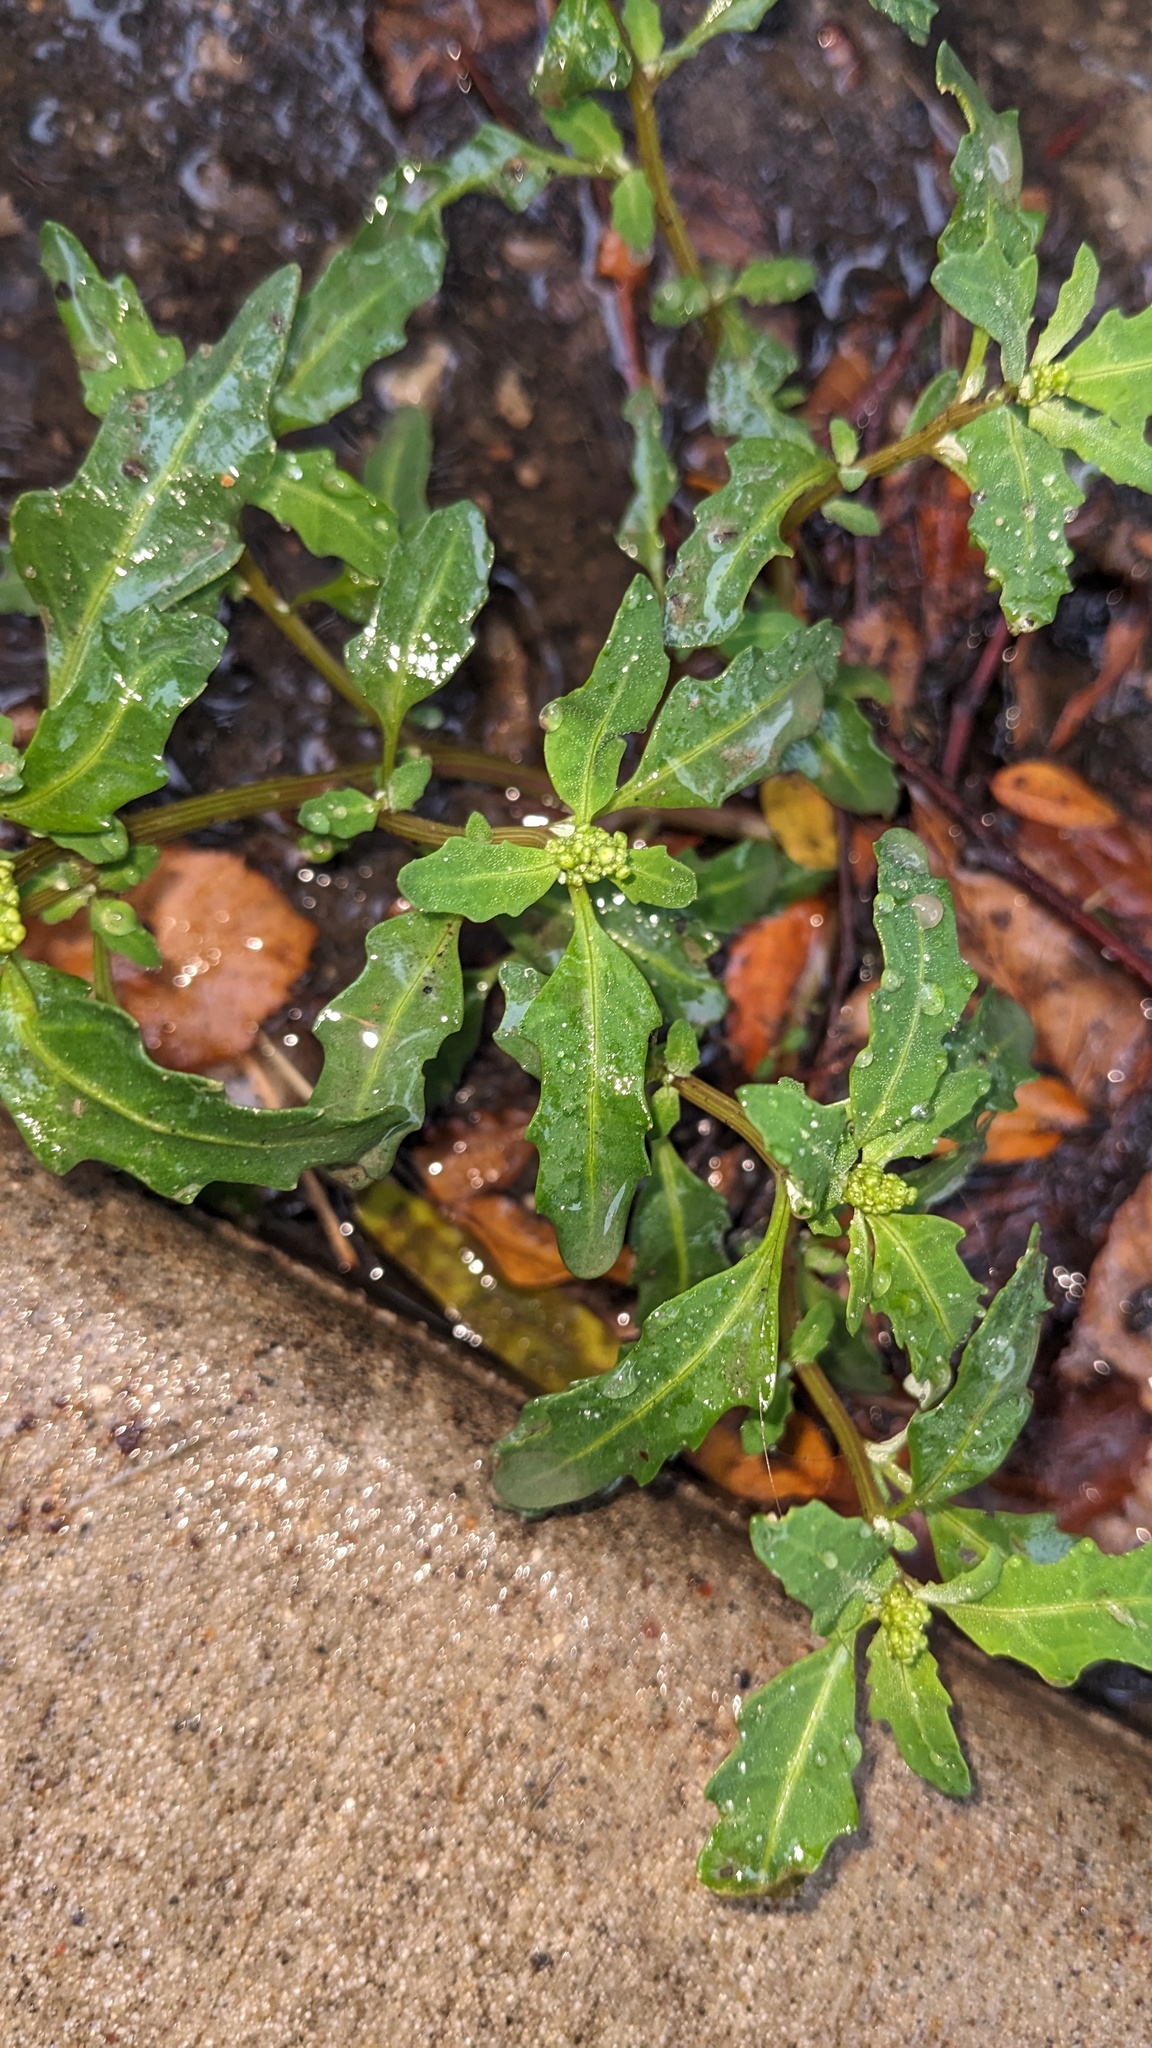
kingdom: Plantae
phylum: Tracheophyta
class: Magnoliopsida
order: Caryophyllales
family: Amaranthaceae
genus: Oxybasis
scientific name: Oxybasis glauca
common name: Glaucous goosefoot
